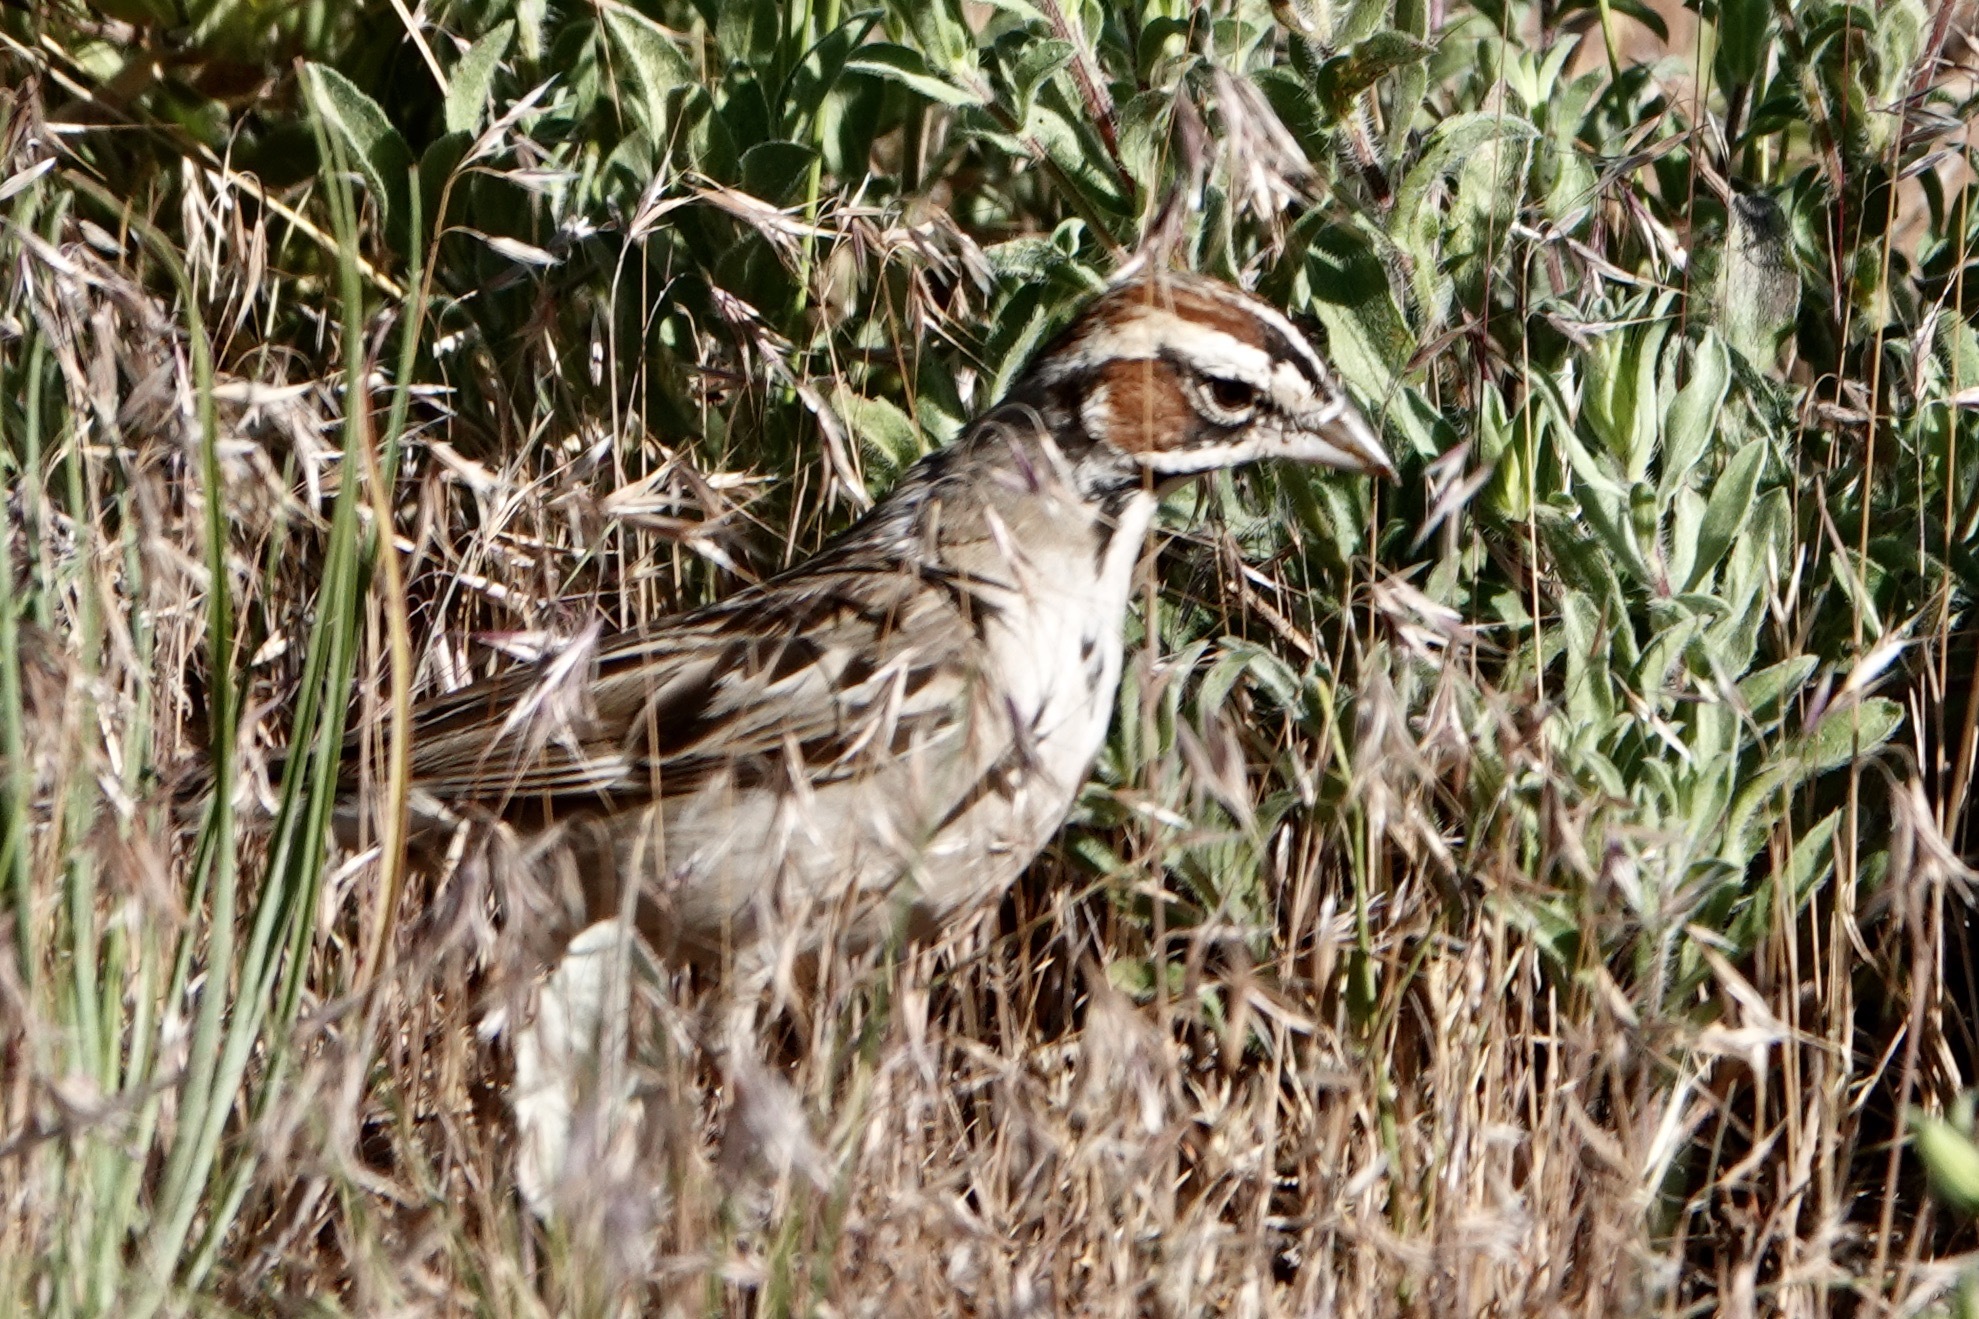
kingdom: Animalia
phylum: Chordata
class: Aves
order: Passeriformes
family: Passerellidae
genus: Chondestes
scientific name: Chondestes grammacus
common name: Lark sparrow
